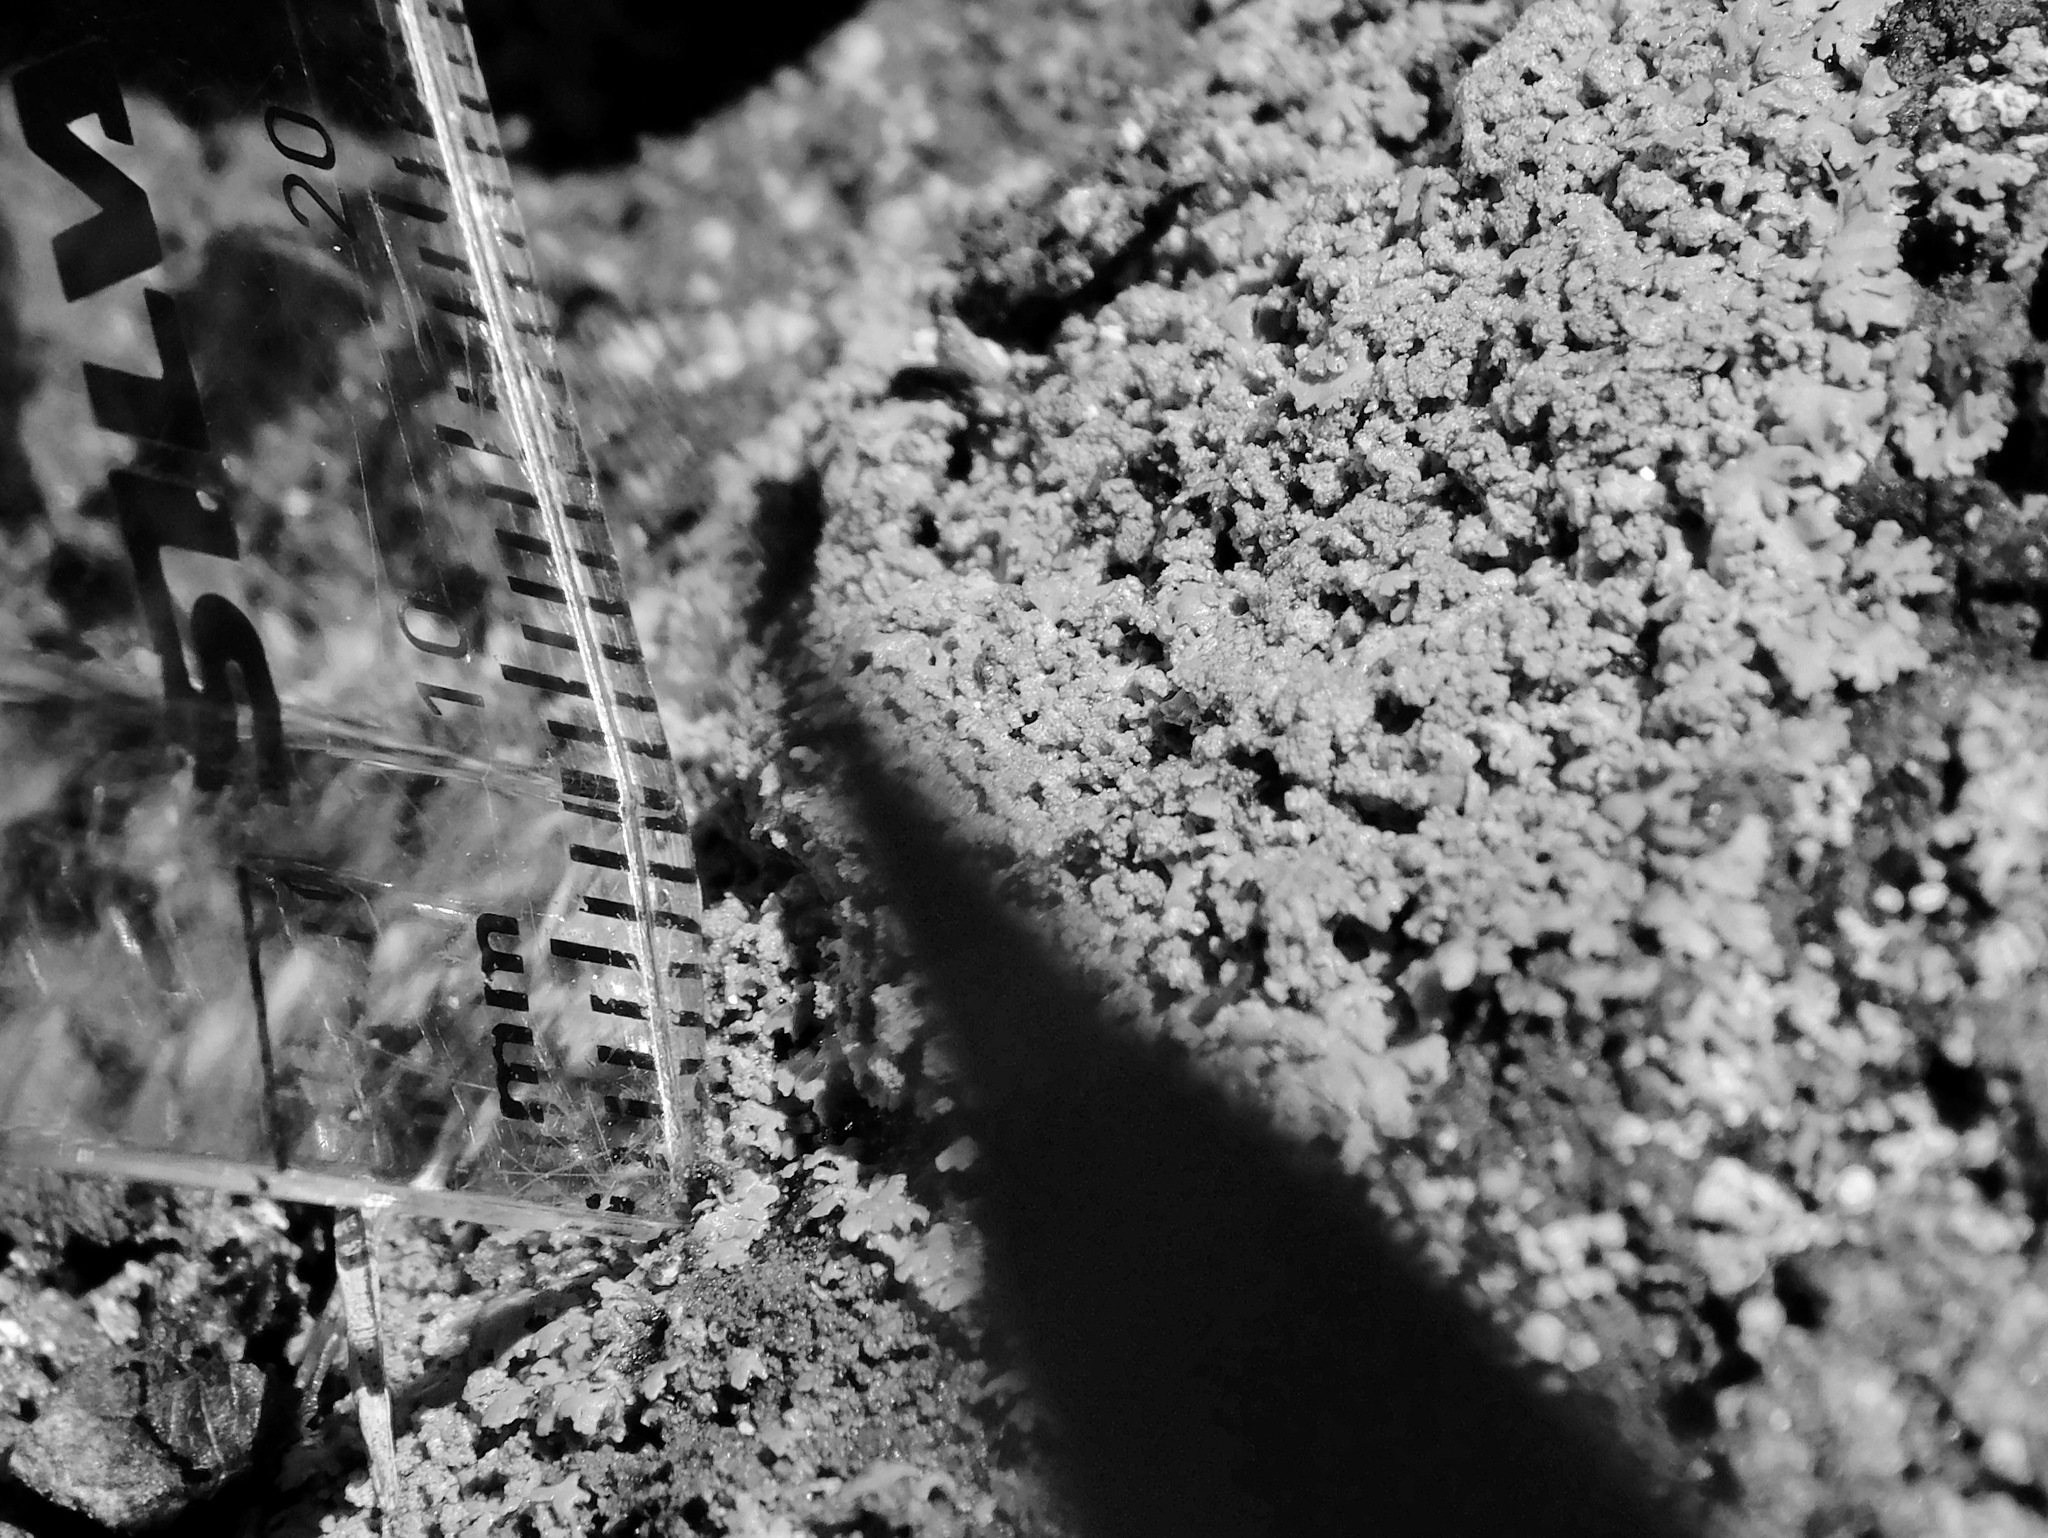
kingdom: Fungi
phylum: Ascomycota
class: Lecanoromycetes
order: Caliciales
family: Physciaceae
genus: Phaeophyscia
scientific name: Phaeophyscia adiastola
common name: Powder-tipped shadow lichen
